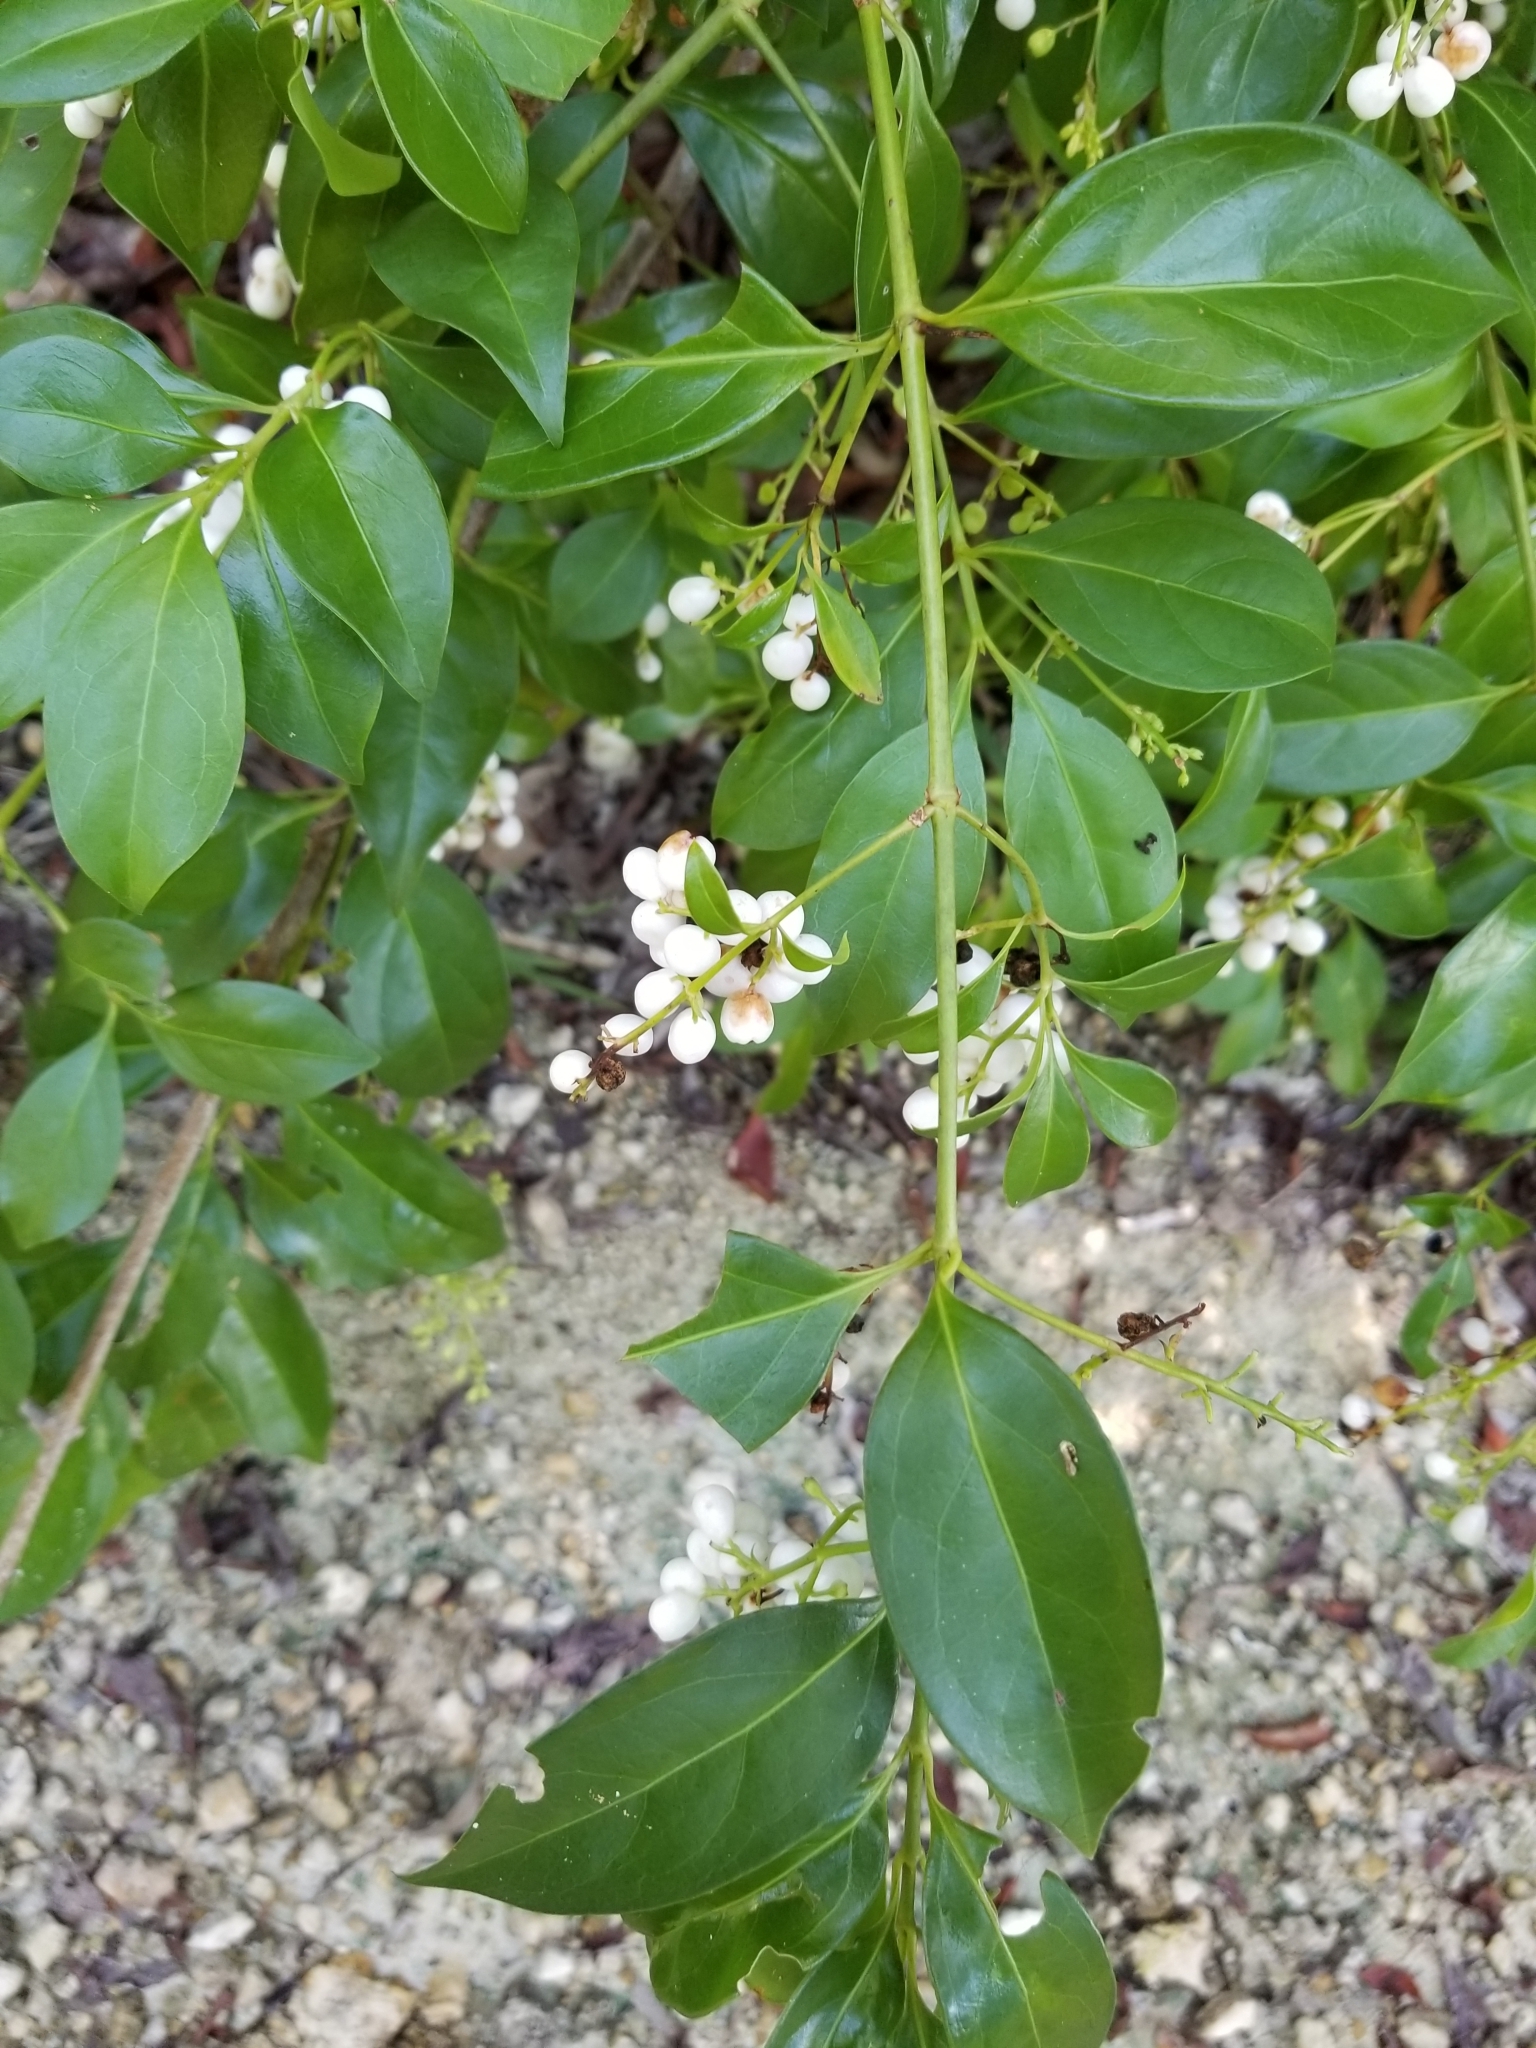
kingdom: Plantae
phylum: Tracheophyta
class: Magnoliopsida
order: Gentianales
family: Rubiaceae
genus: Chiococca
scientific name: Chiococca alba
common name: Snowberry
